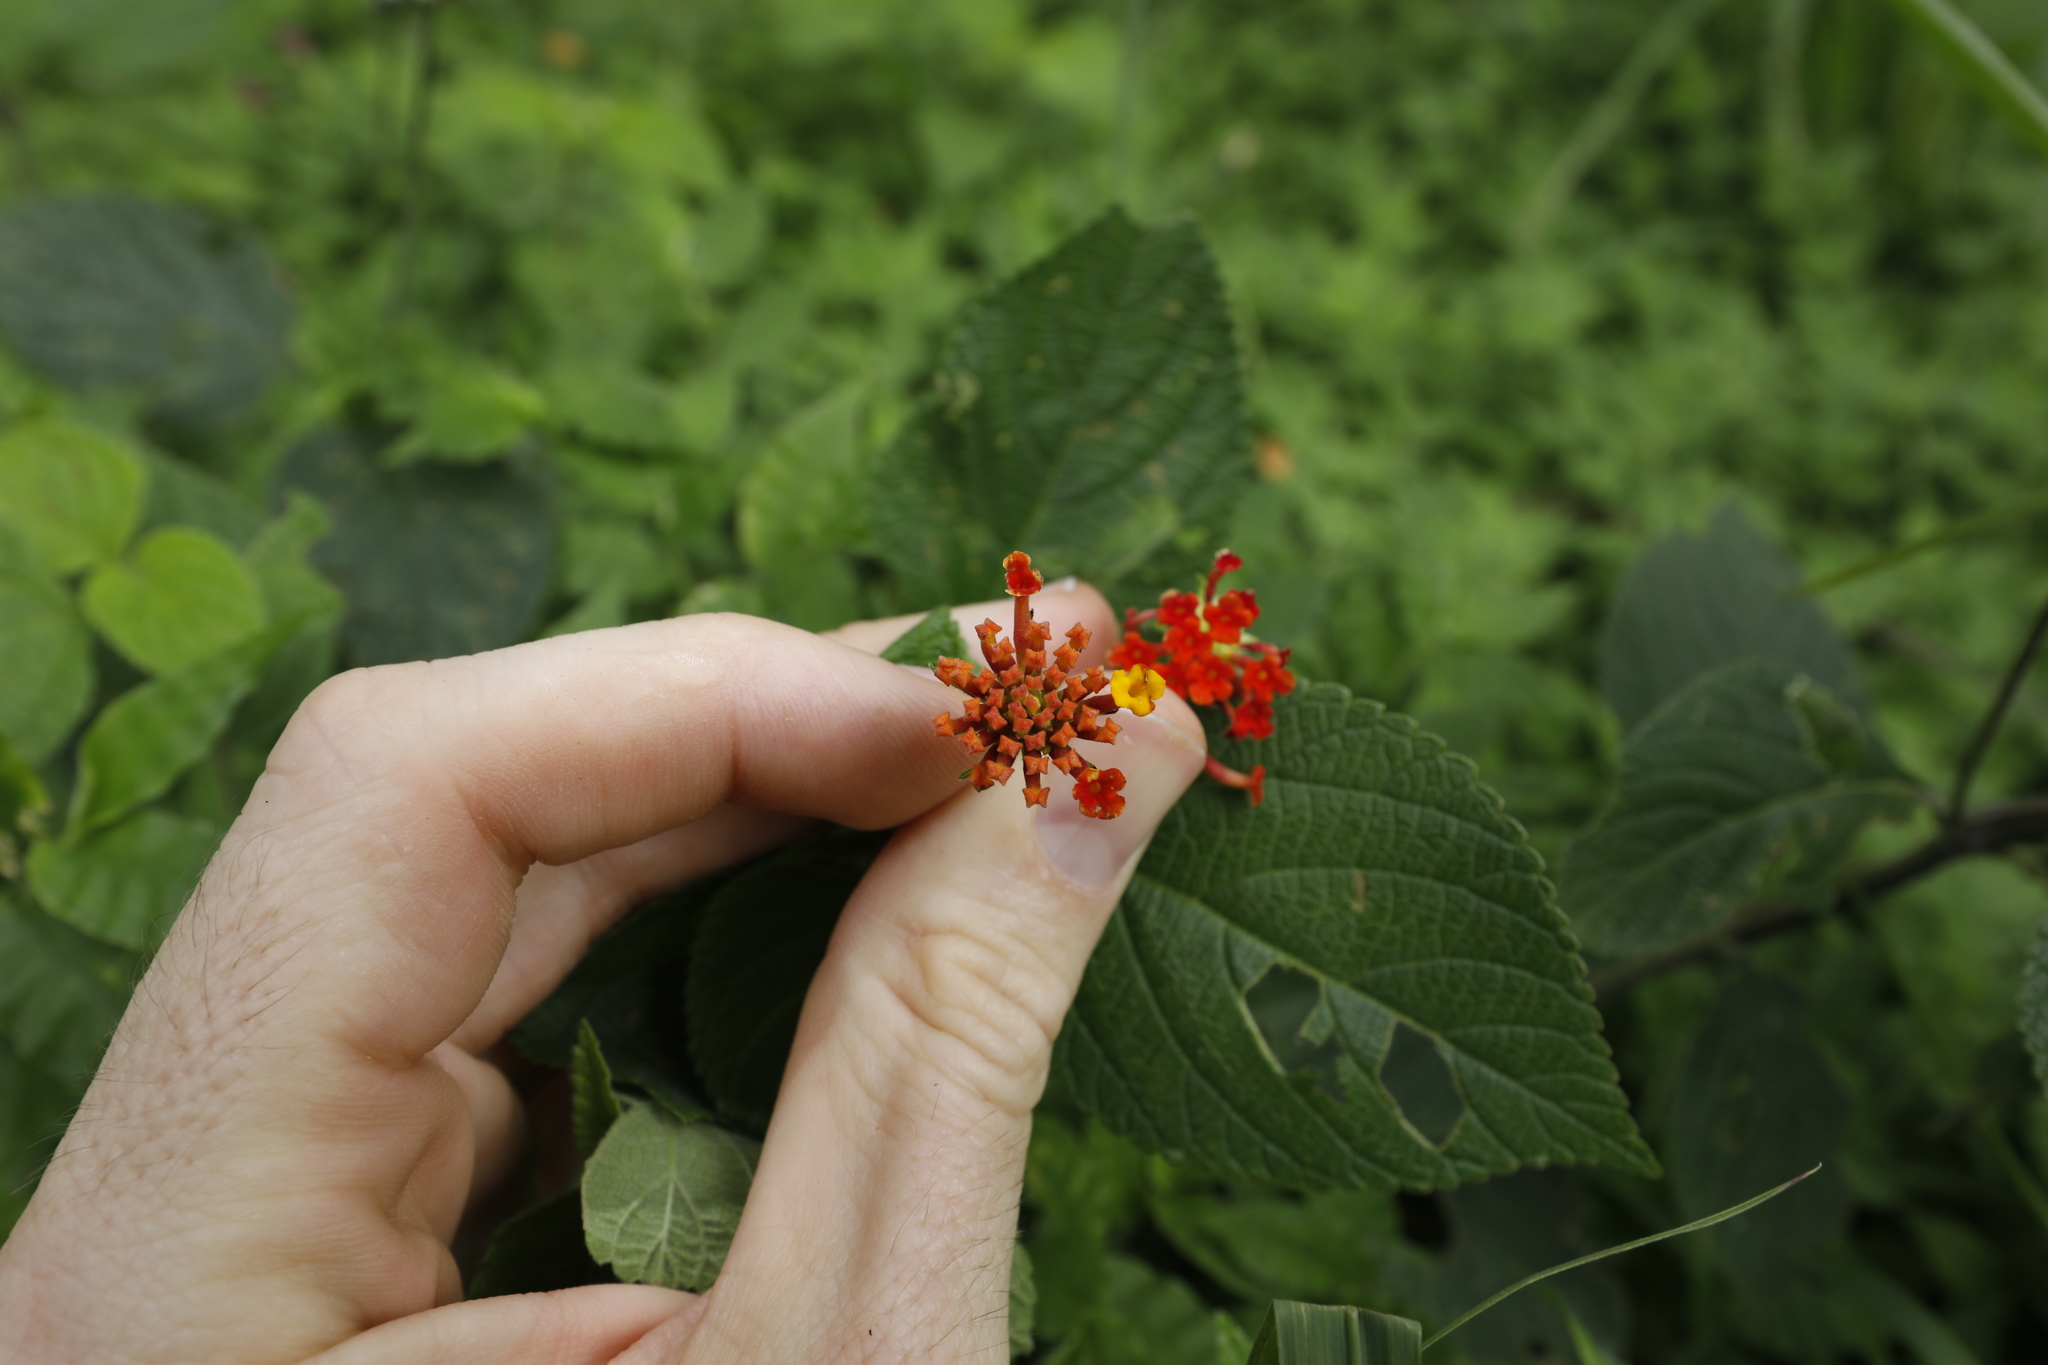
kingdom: Plantae
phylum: Tracheophyta
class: Magnoliopsida
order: Lamiales
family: Verbenaceae
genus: Lantana
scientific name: Lantana camara
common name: Lantana
